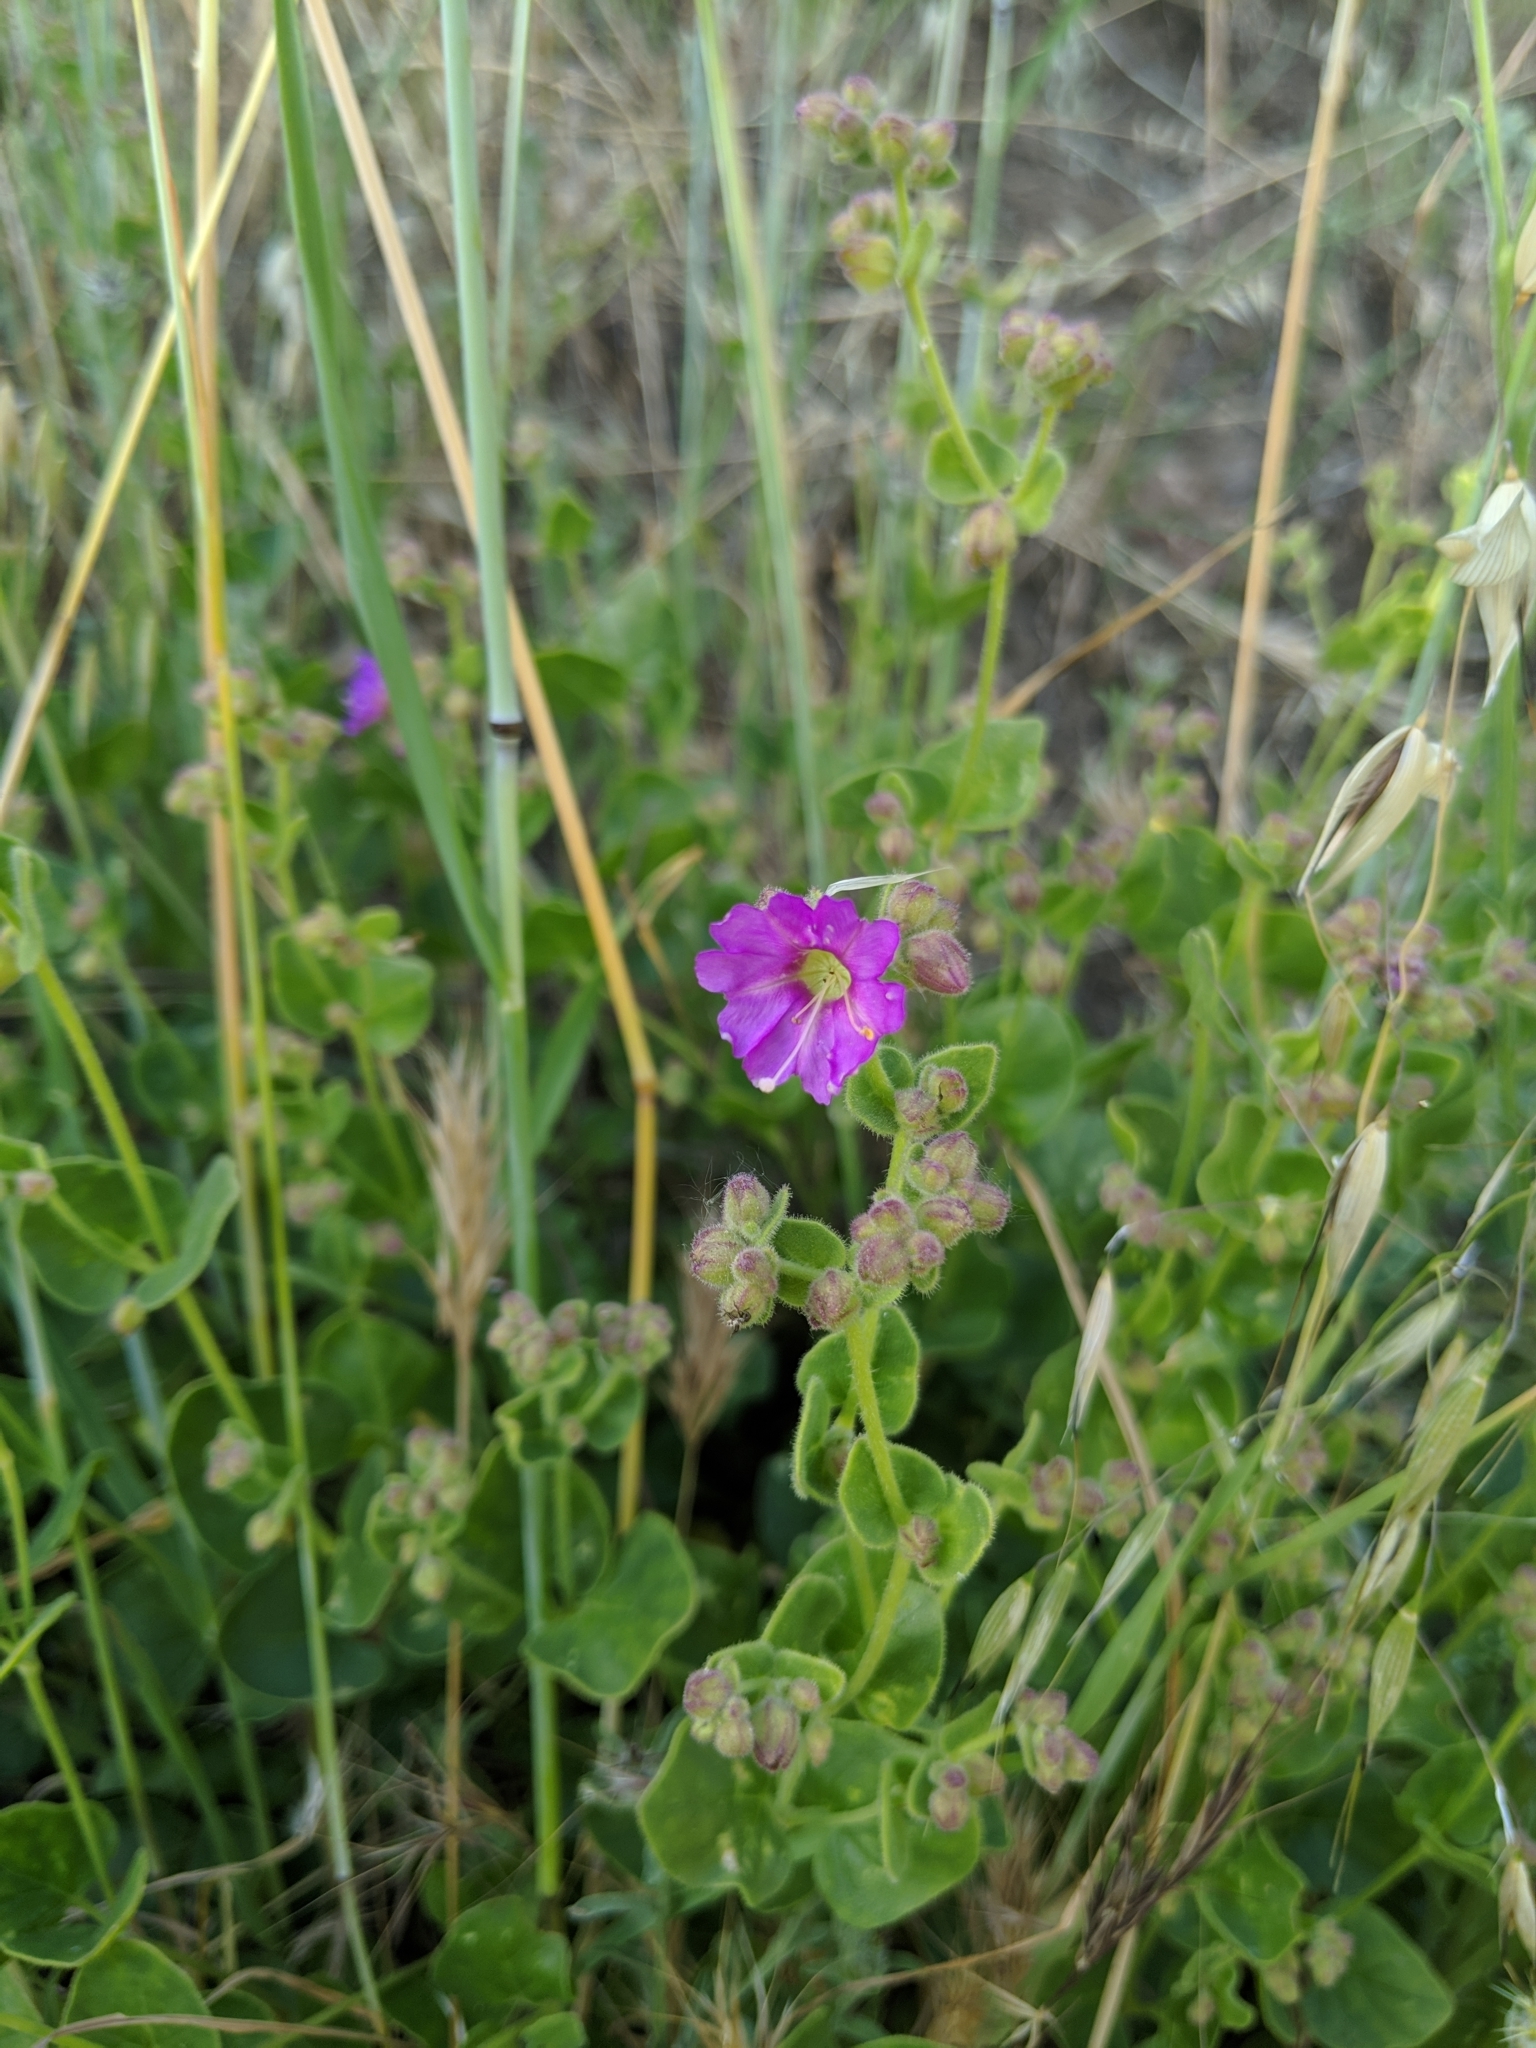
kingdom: Plantae
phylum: Tracheophyta
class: Magnoliopsida
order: Caryophyllales
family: Nyctaginaceae
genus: Mirabilis
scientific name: Mirabilis laevis
